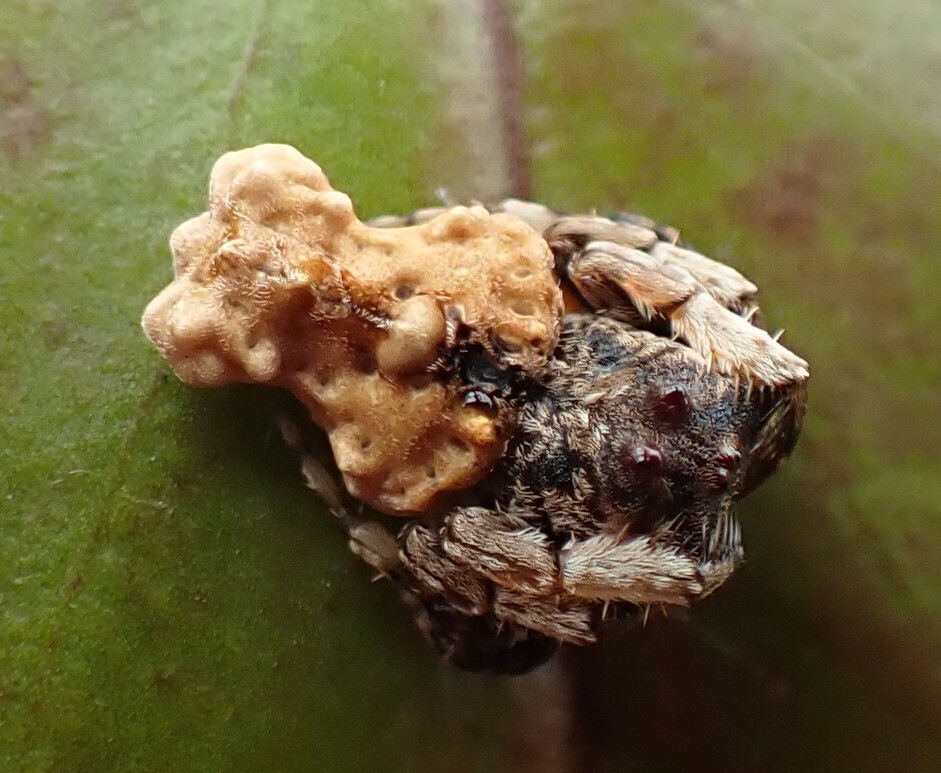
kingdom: Animalia
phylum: Arthropoda
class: Arachnida
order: Araneae
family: Arkyidae
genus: Arkys
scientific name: Arkys alticephala
